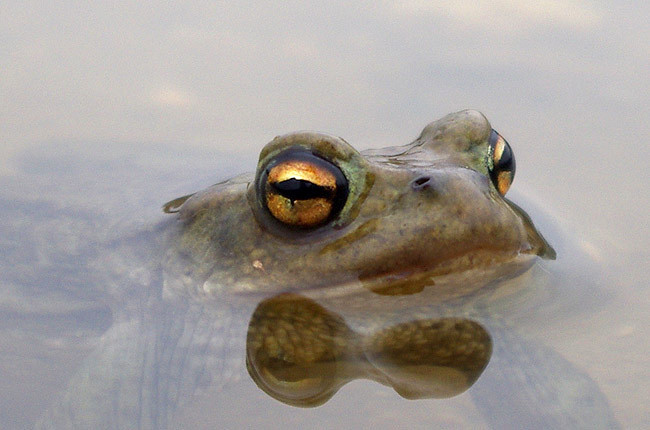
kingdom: Animalia
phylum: Chordata
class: Amphibia
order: Anura
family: Bufonidae
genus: Bufo
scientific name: Bufo bufo
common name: Common toad
